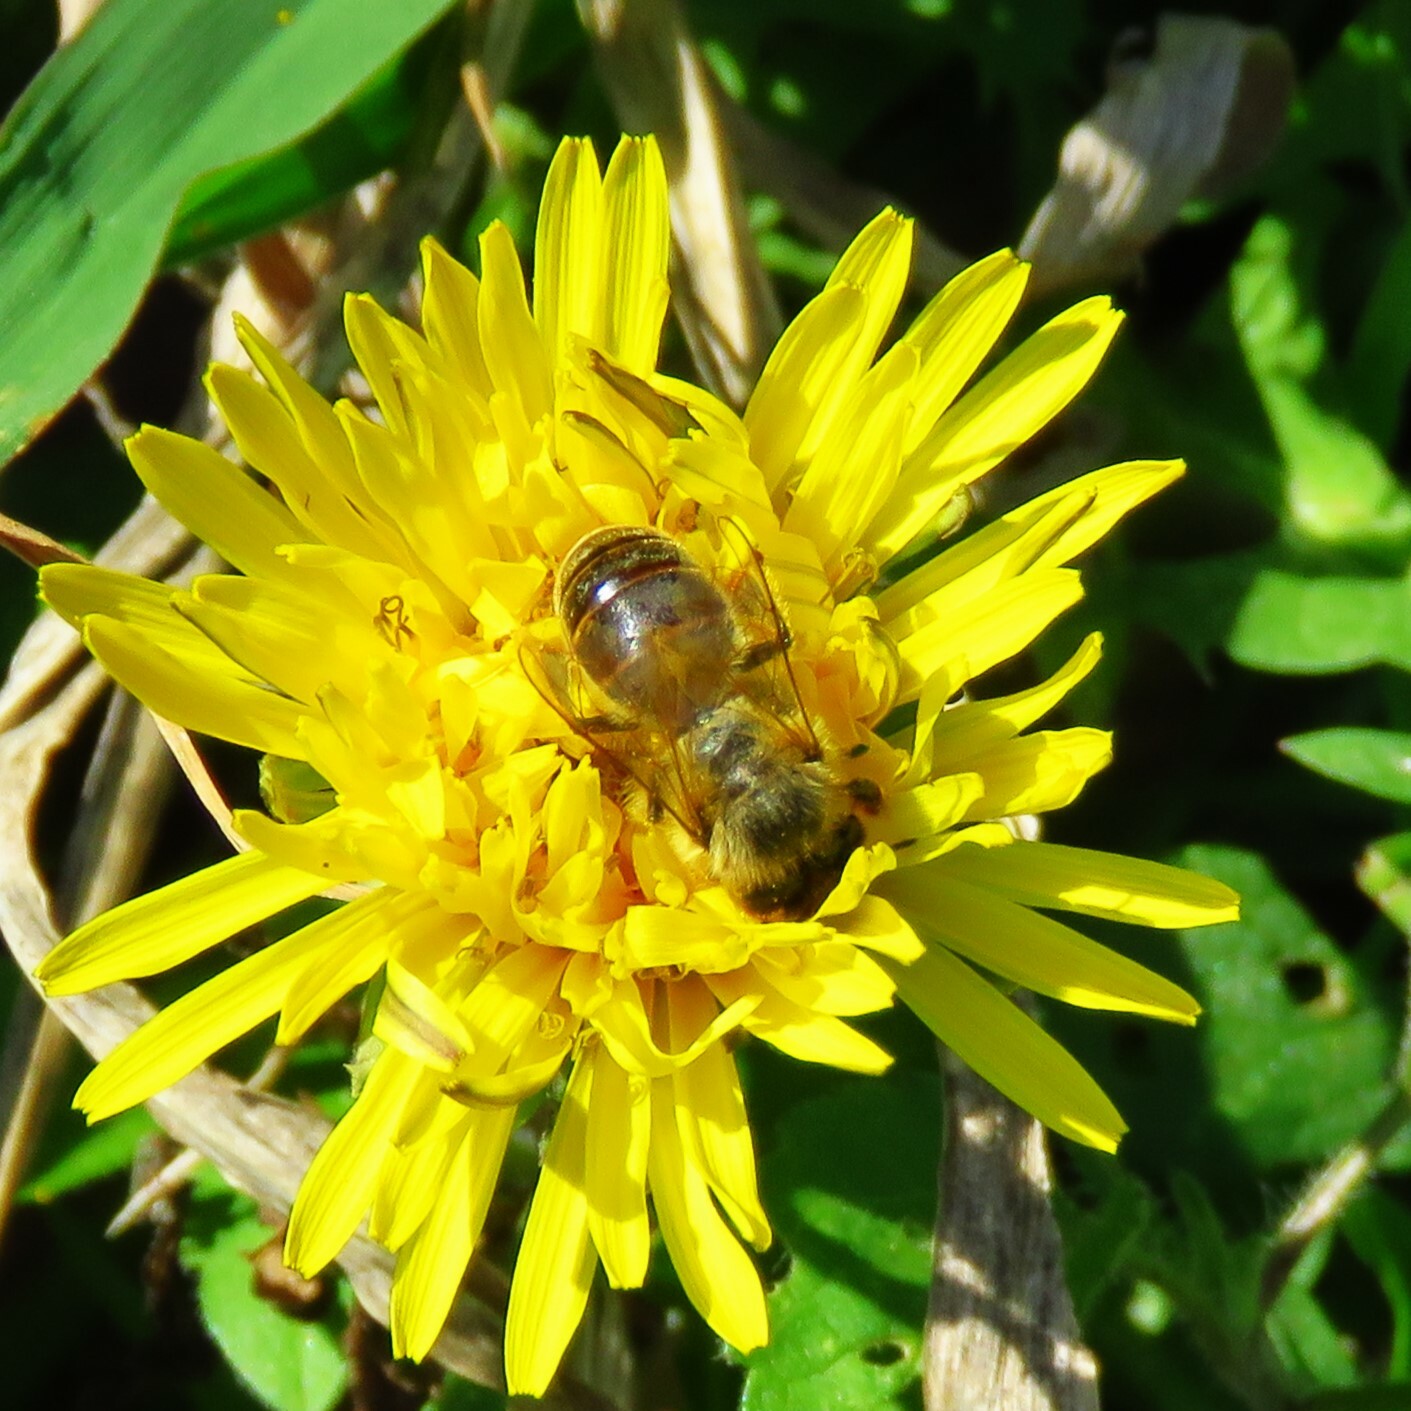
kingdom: Animalia
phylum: Arthropoda
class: Insecta
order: Hymenoptera
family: Apidae
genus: Apis
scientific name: Apis mellifera
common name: Honey bee
